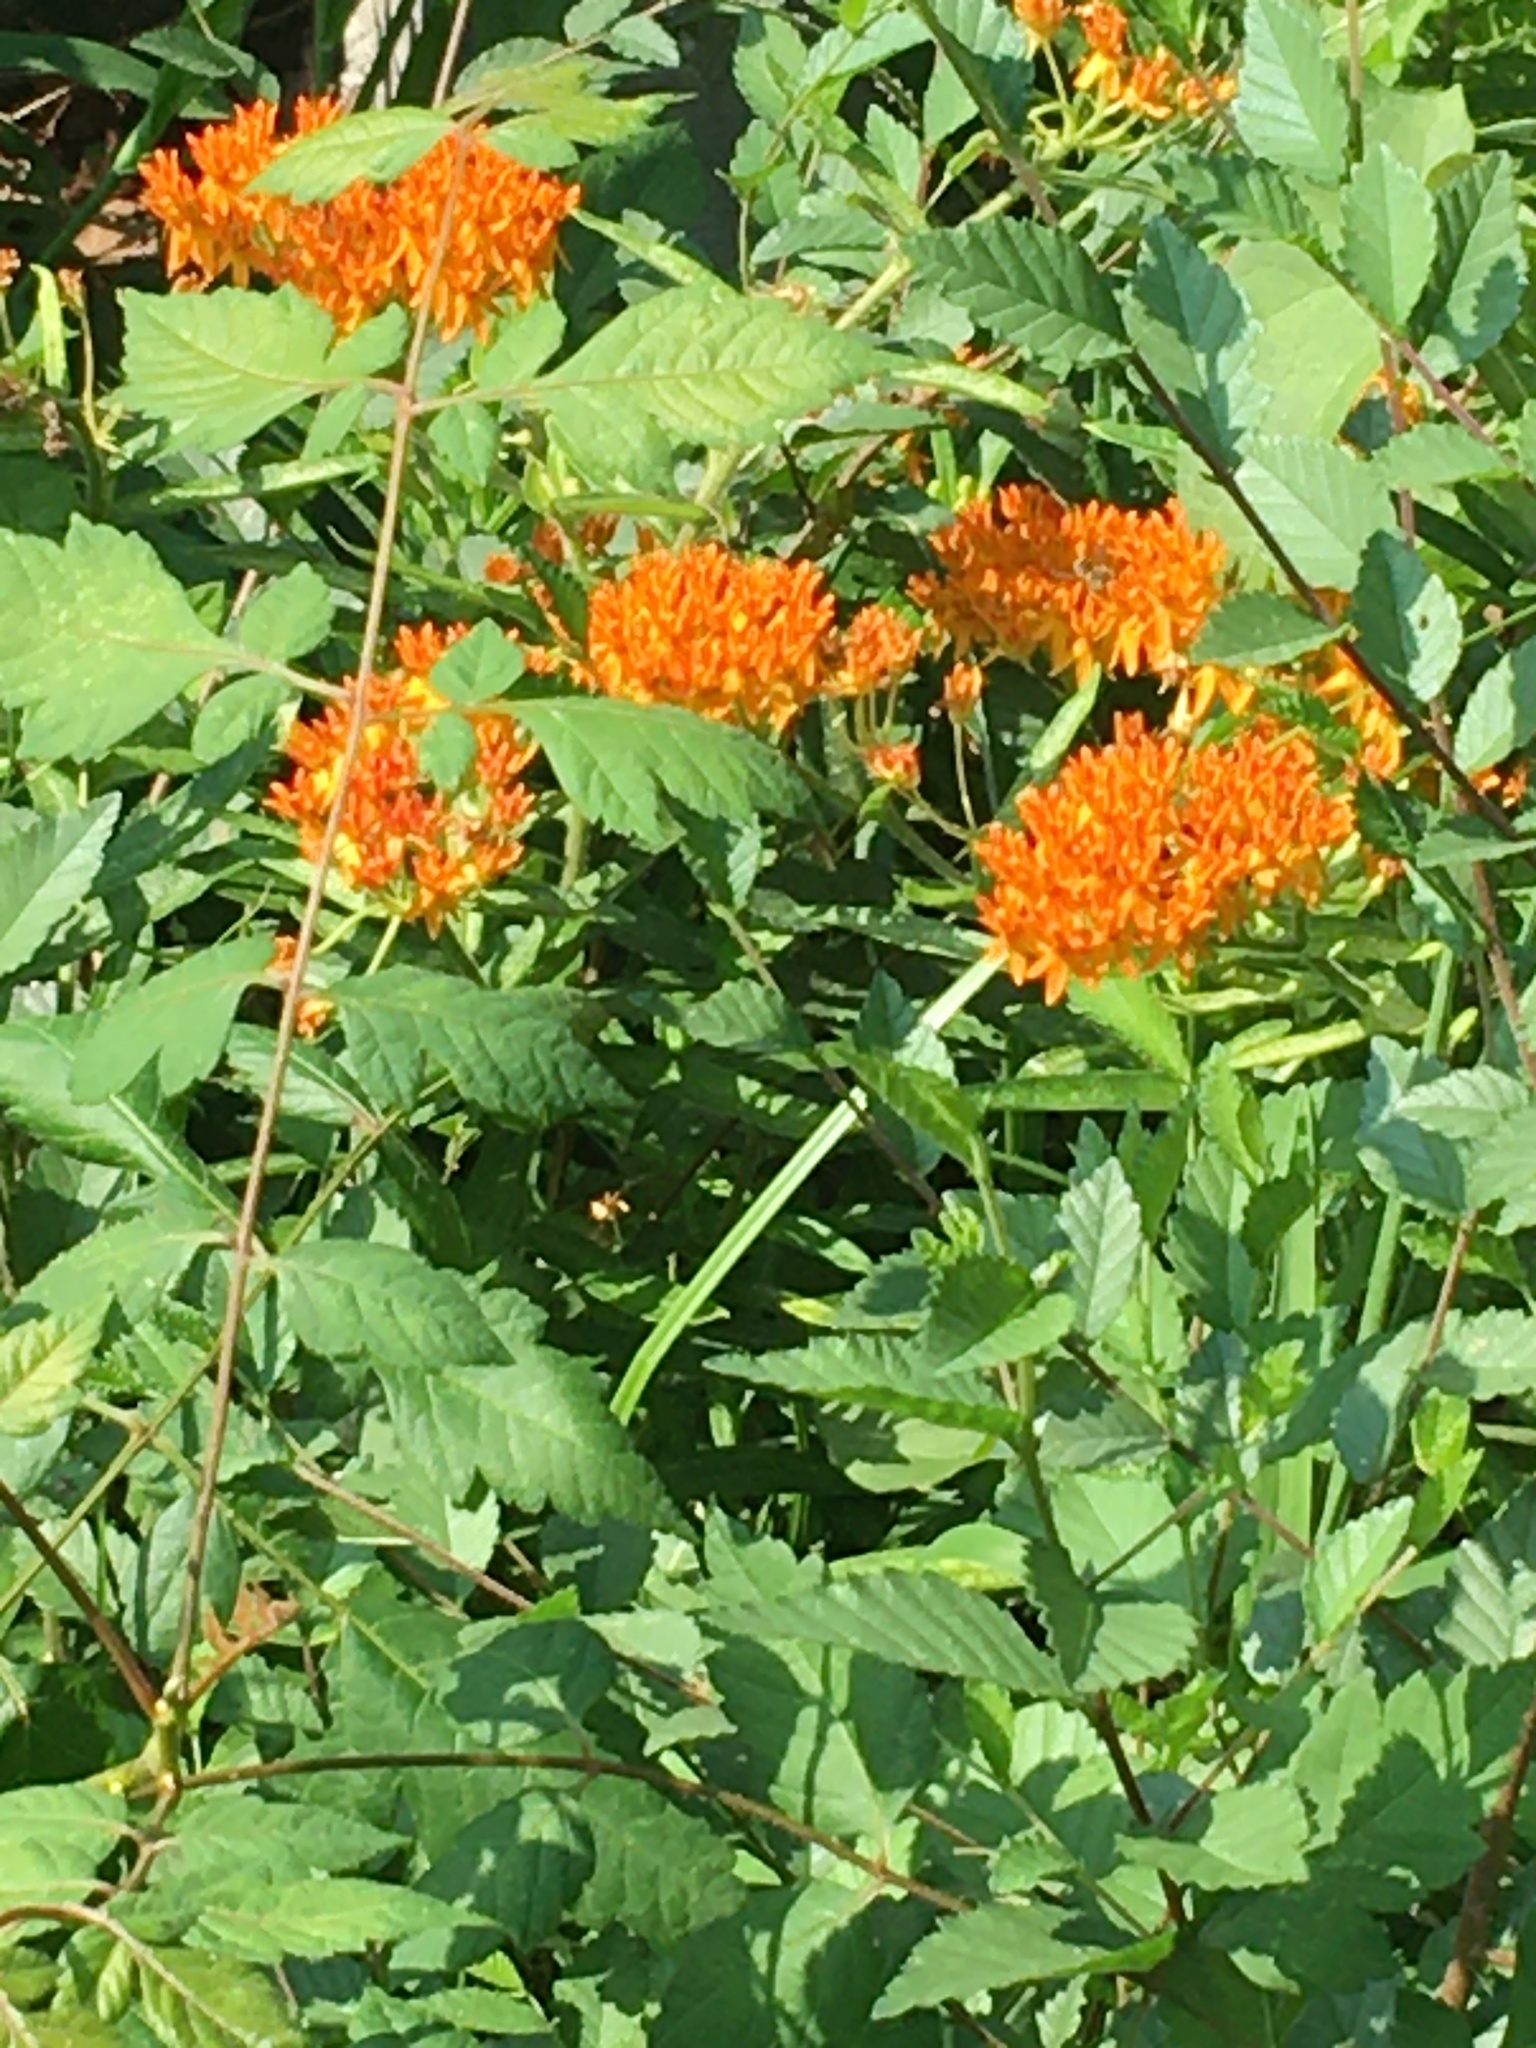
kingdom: Plantae
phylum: Tracheophyta
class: Magnoliopsida
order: Gentianales
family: Apocynaceae
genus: Asclepias
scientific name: Asclepias tuberosa
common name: Butterfly milkweed
